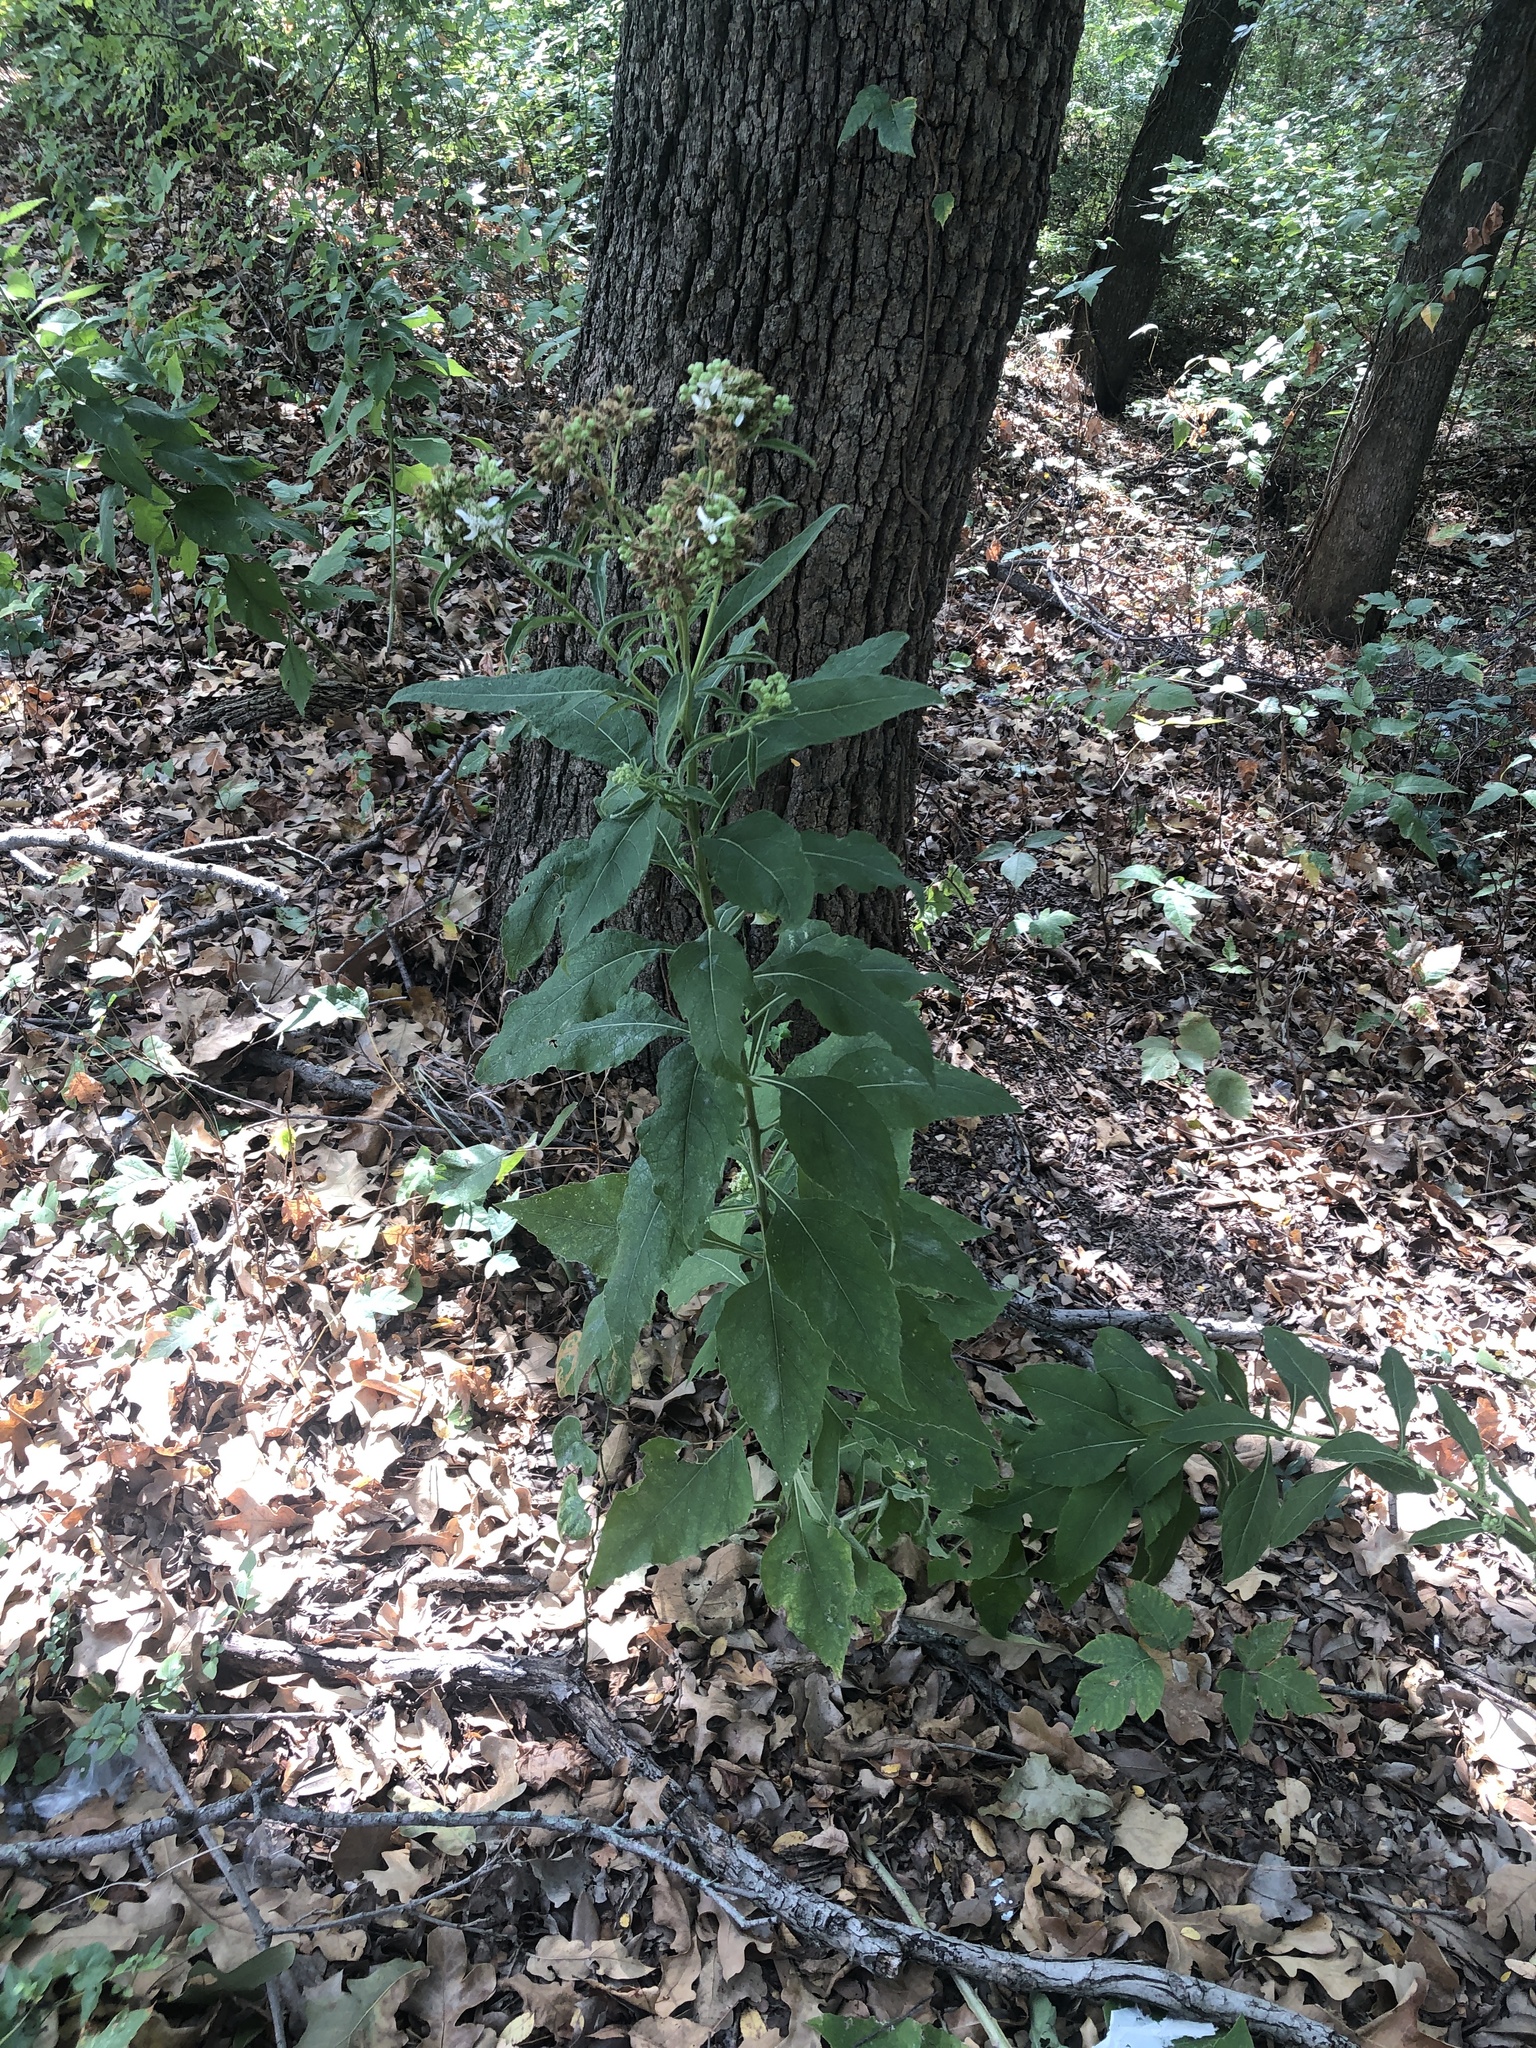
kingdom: Plantae
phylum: Tracheophyta
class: Magnoliopsida
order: Asterales
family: Asteraceae
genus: Verbesina
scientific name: Verbesina virginica
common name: Frostweed
